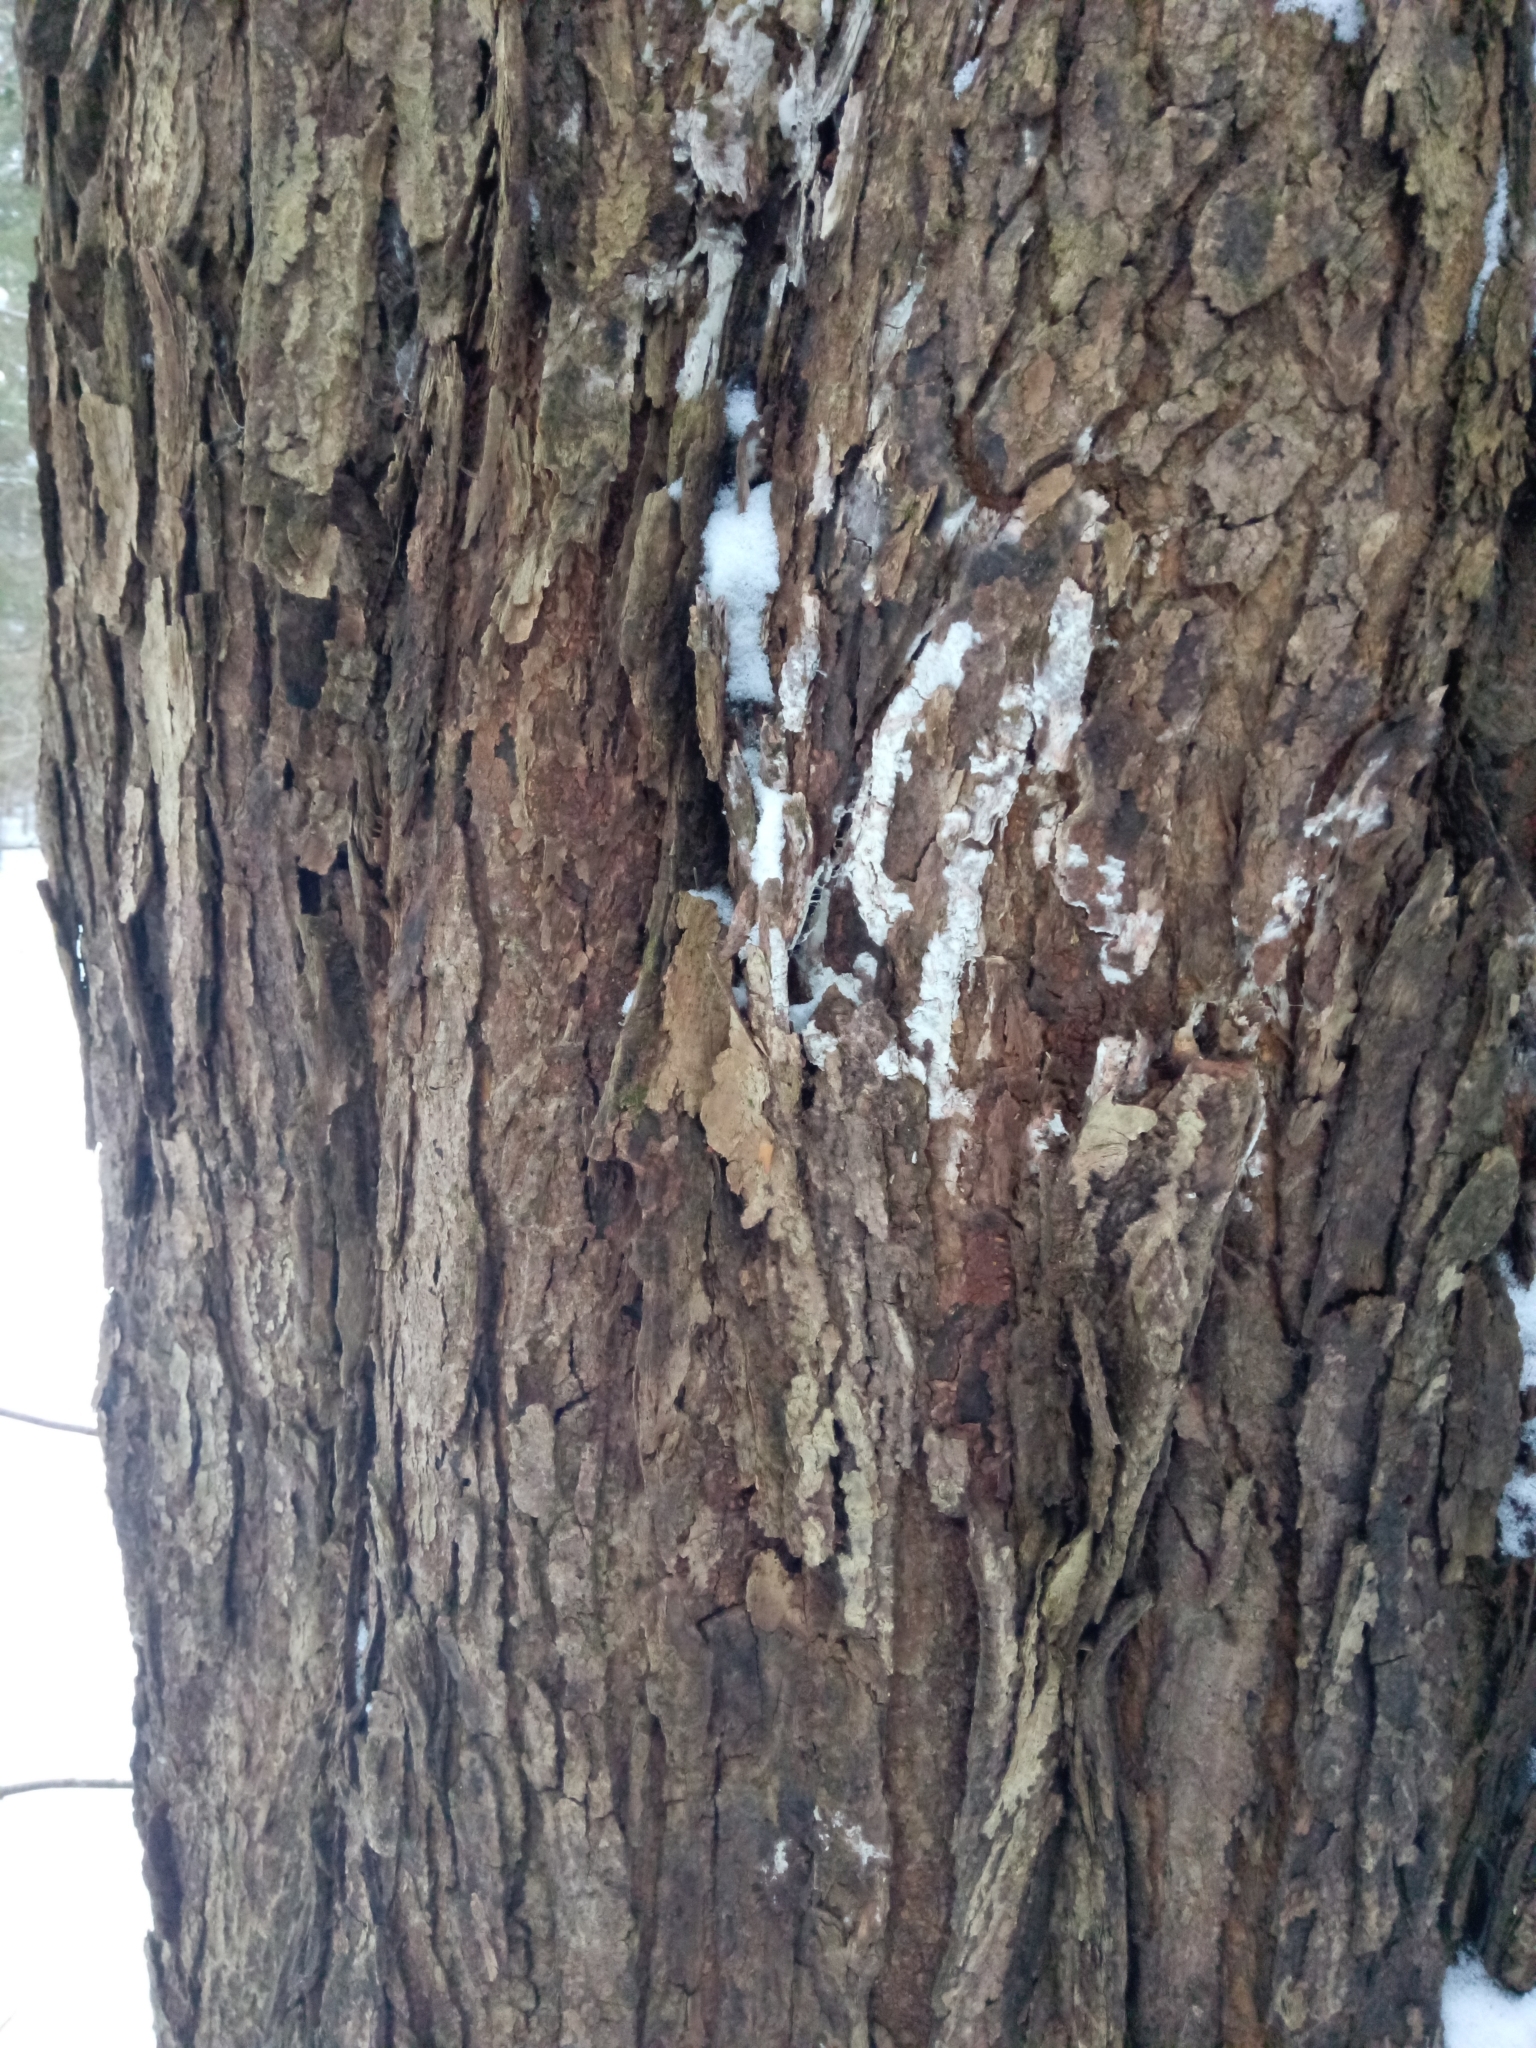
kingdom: Plantae
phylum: Tracheophyta
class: Magnoliopsida
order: Sapindales
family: Sapindaceae
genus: Acer
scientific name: Acer rubrum
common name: Red maple
